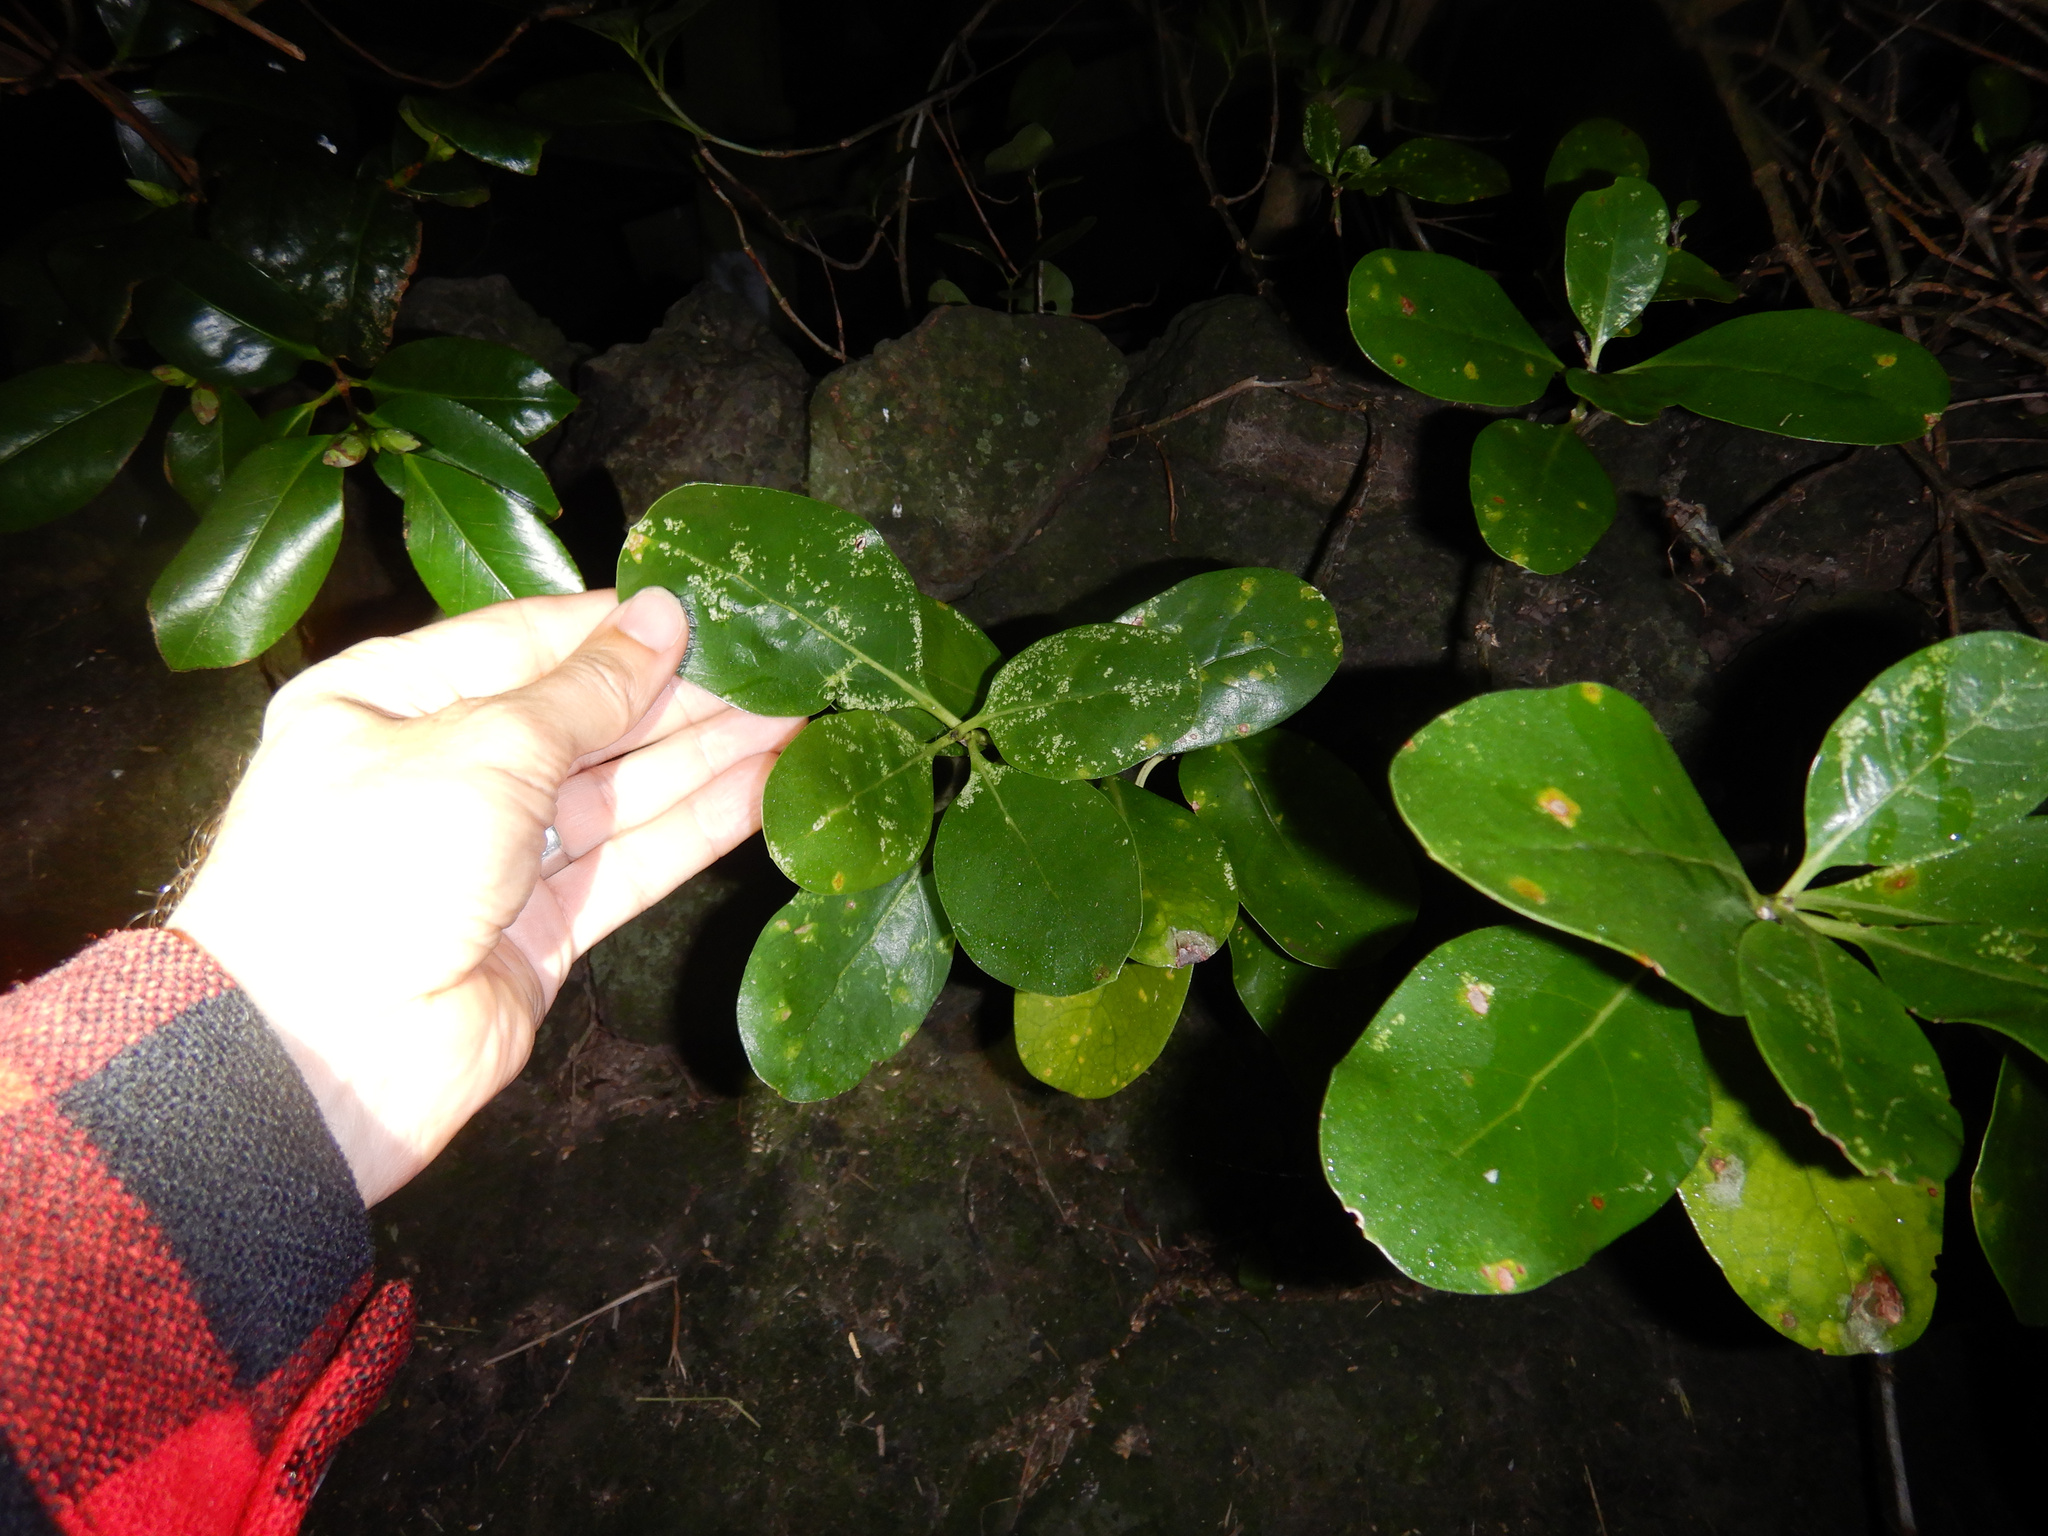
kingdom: Plantae
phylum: Tracheophyta
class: Magnoliopsida
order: Gentianales
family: Rubiaceae
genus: Coprosma
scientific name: Coprosma repens
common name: Tree bedstraw
